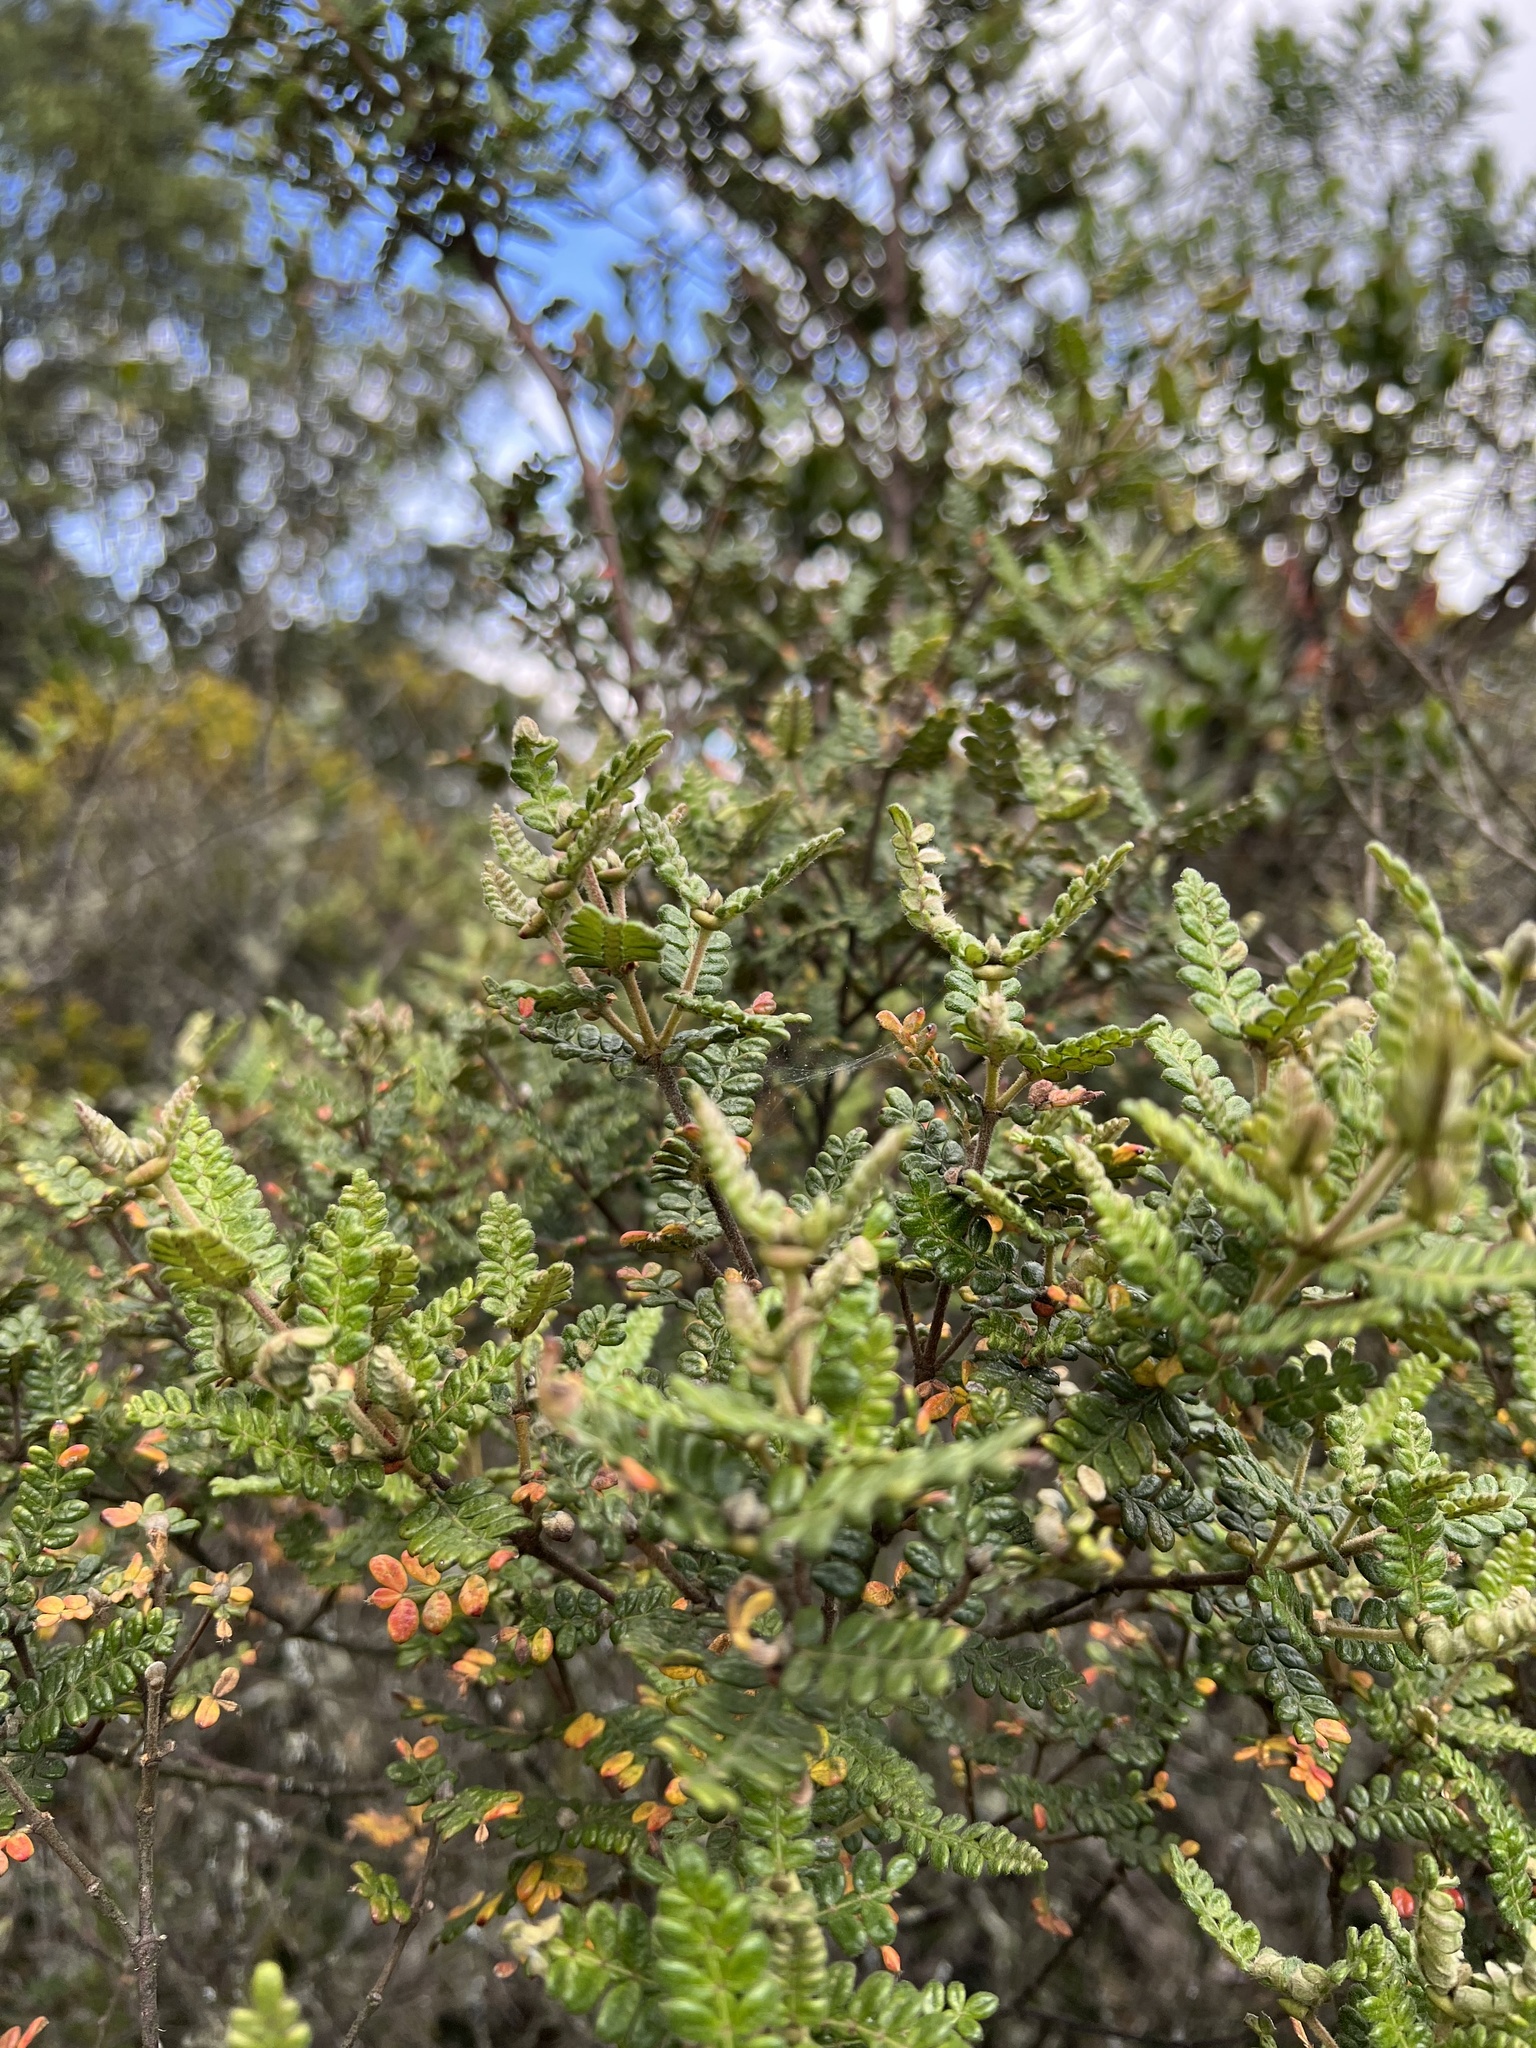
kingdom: Plantae
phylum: Tracheophyta
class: Magnoliopsida
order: Oxalidales
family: Cunoniaceae
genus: Weinmannia
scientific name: Weinmannia tomentosa
